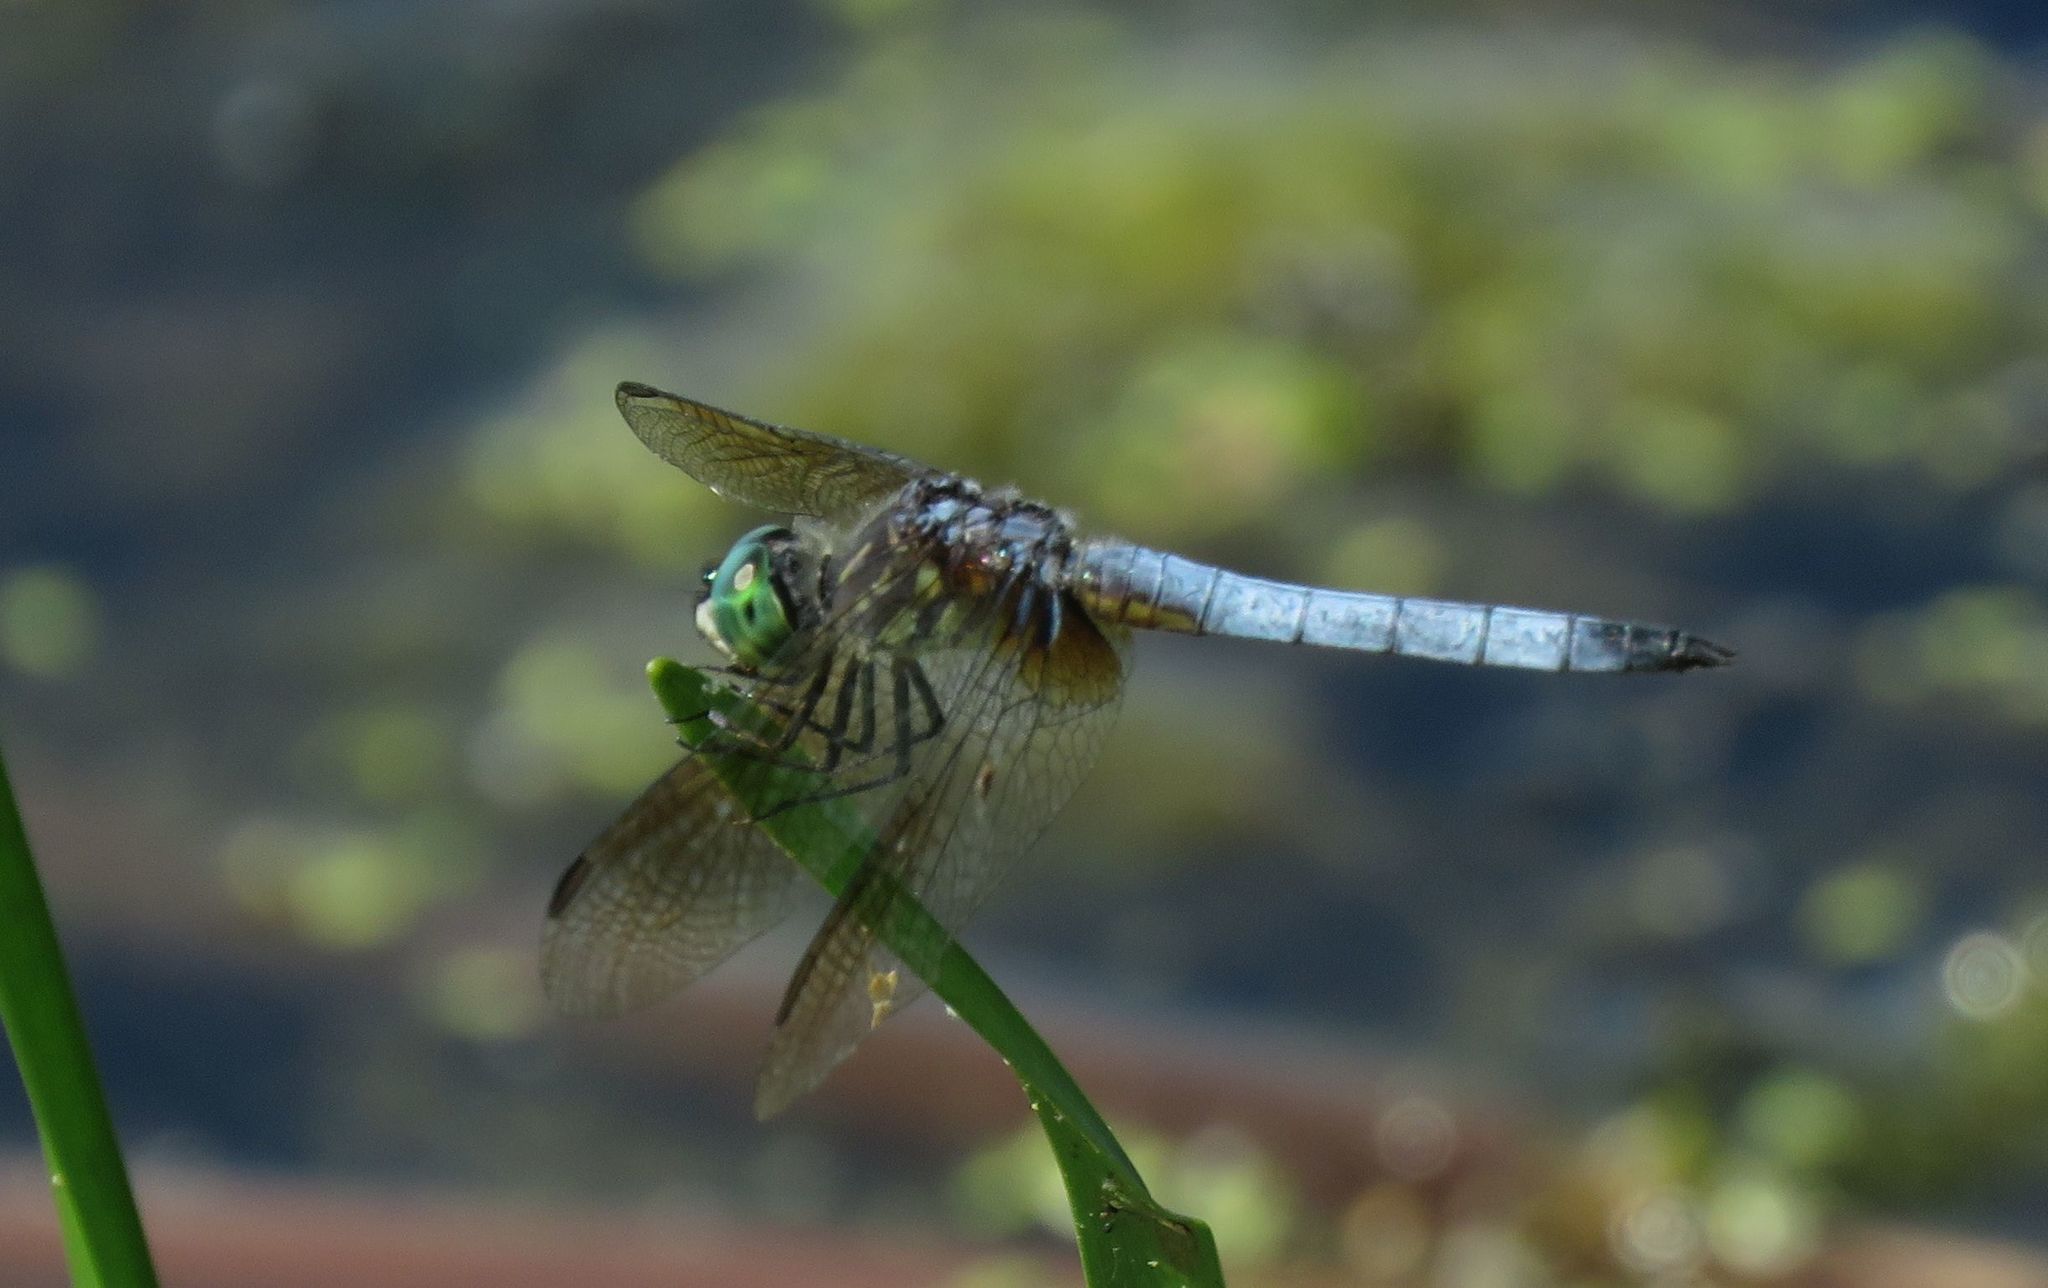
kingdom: Animalia
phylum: Arthropoda
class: Insecta
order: Odonata
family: Libellulidae
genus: Pachydiplax
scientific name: Pachydiplax longipennis
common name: Blue dasher
